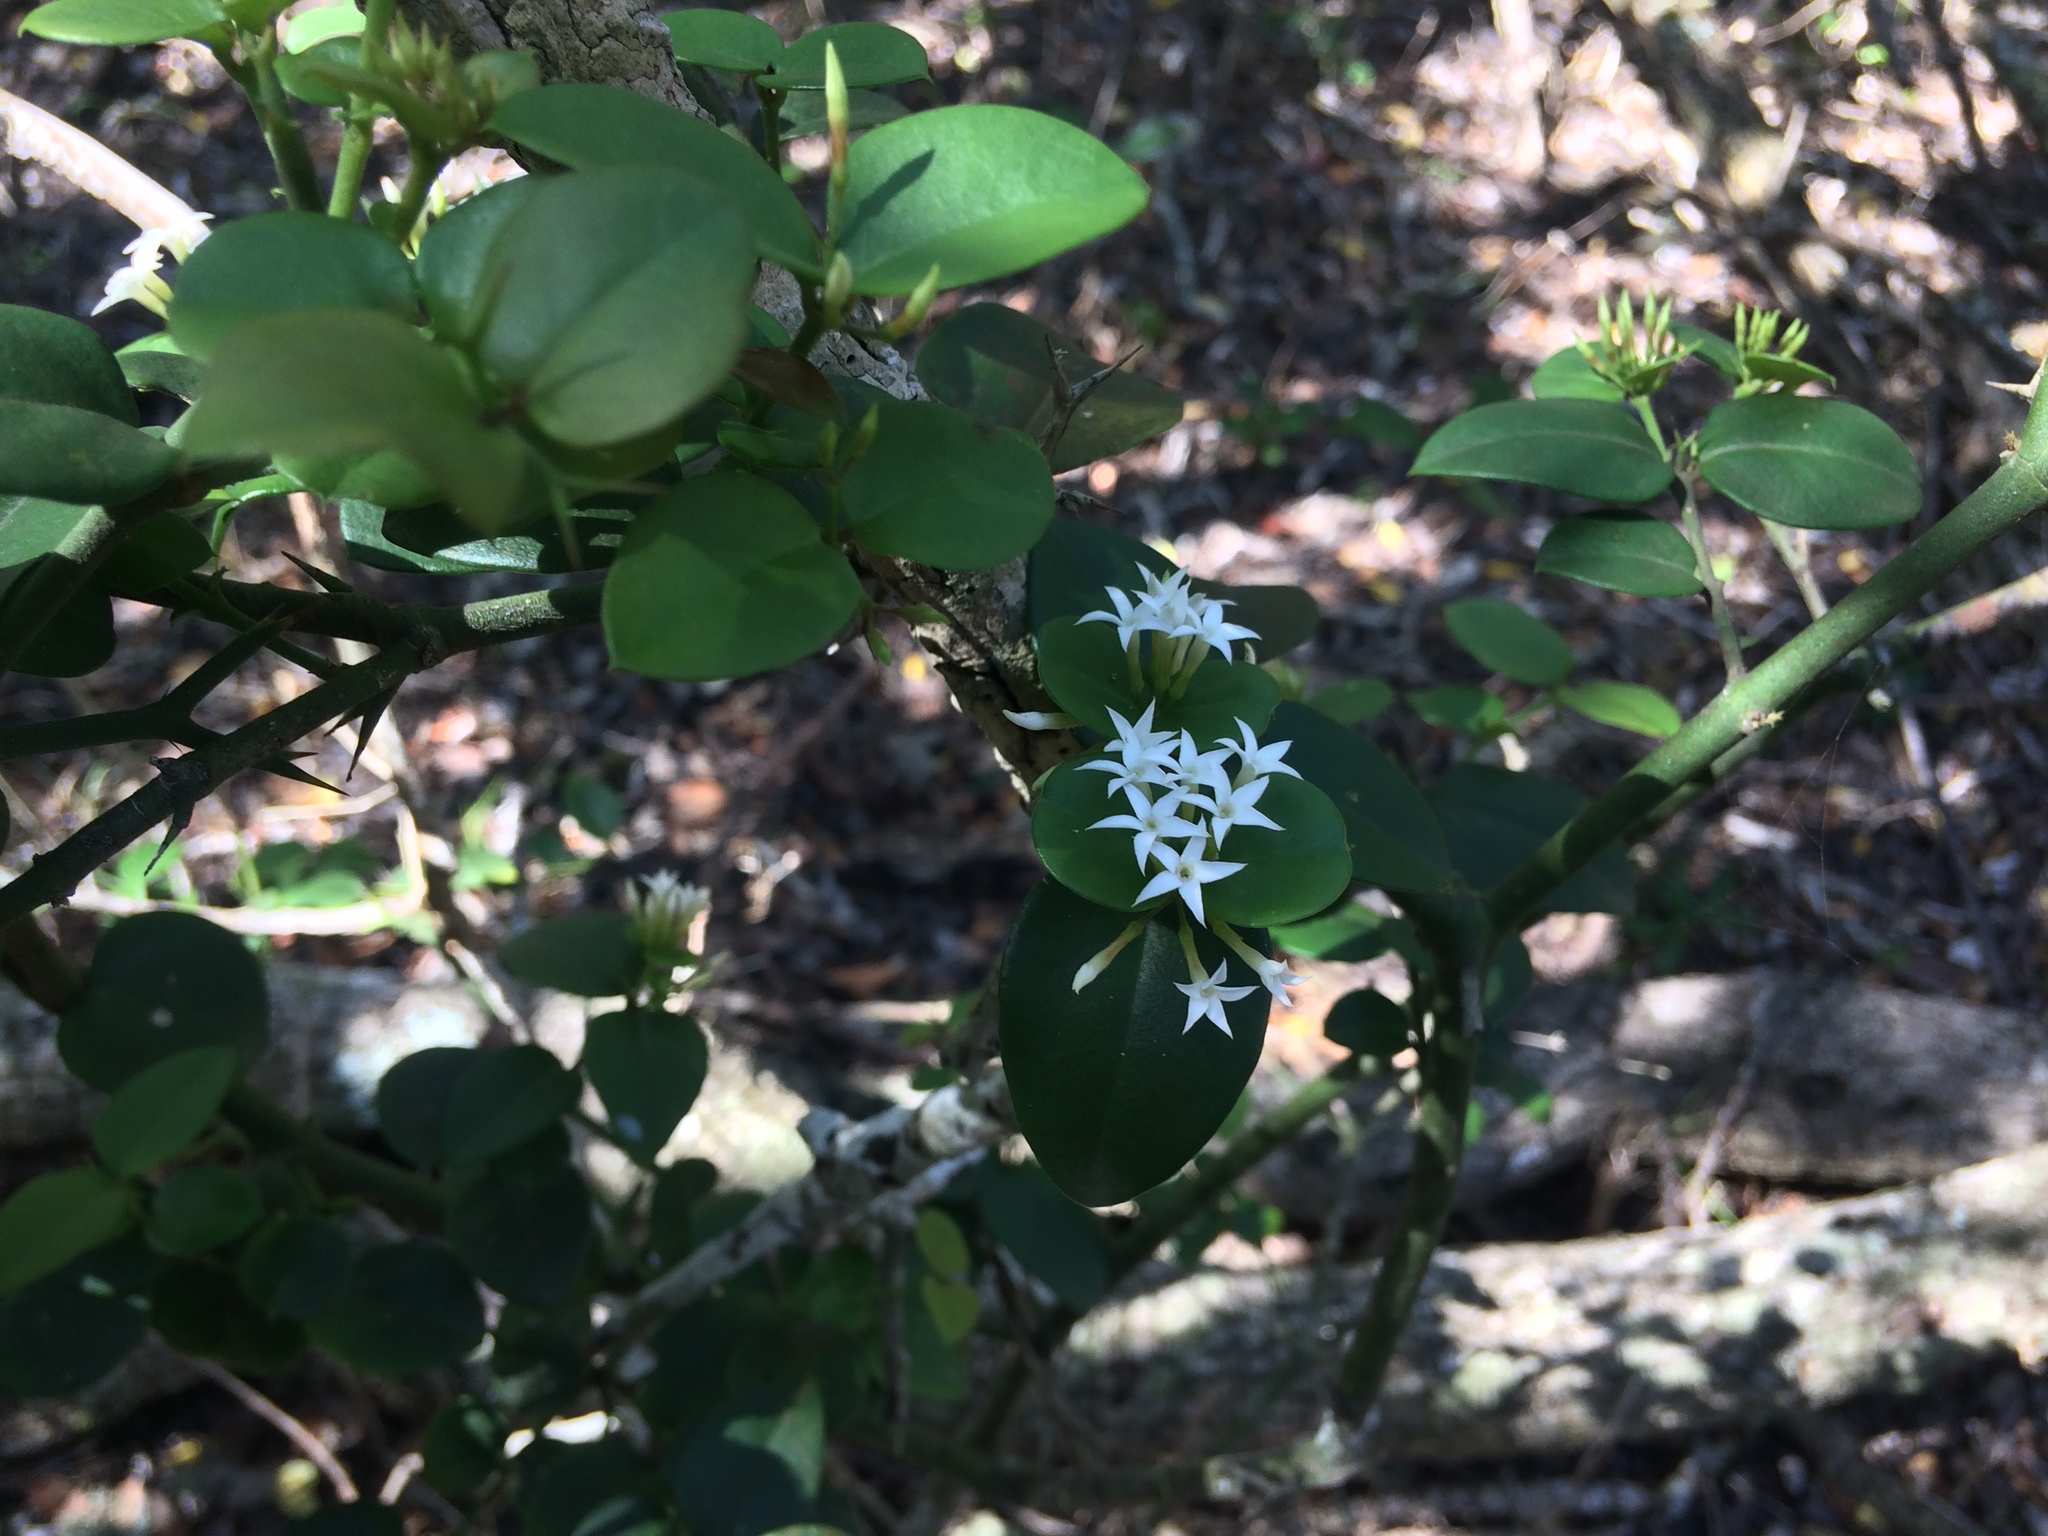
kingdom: Plantae
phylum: Tracheophyta
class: Magnoliopsida
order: Gentianales
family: Apocynaceae
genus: Carissa
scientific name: Carissa bispinosa
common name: Forest num-num
